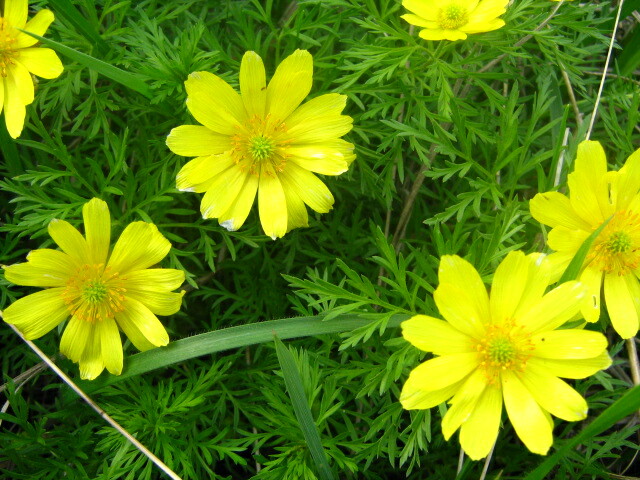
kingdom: Plantae
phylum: Tracheophyta
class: Magnoliopsida
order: Ranunculales
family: Ranunculaceae
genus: Adonis
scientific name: Adonis volgensis
